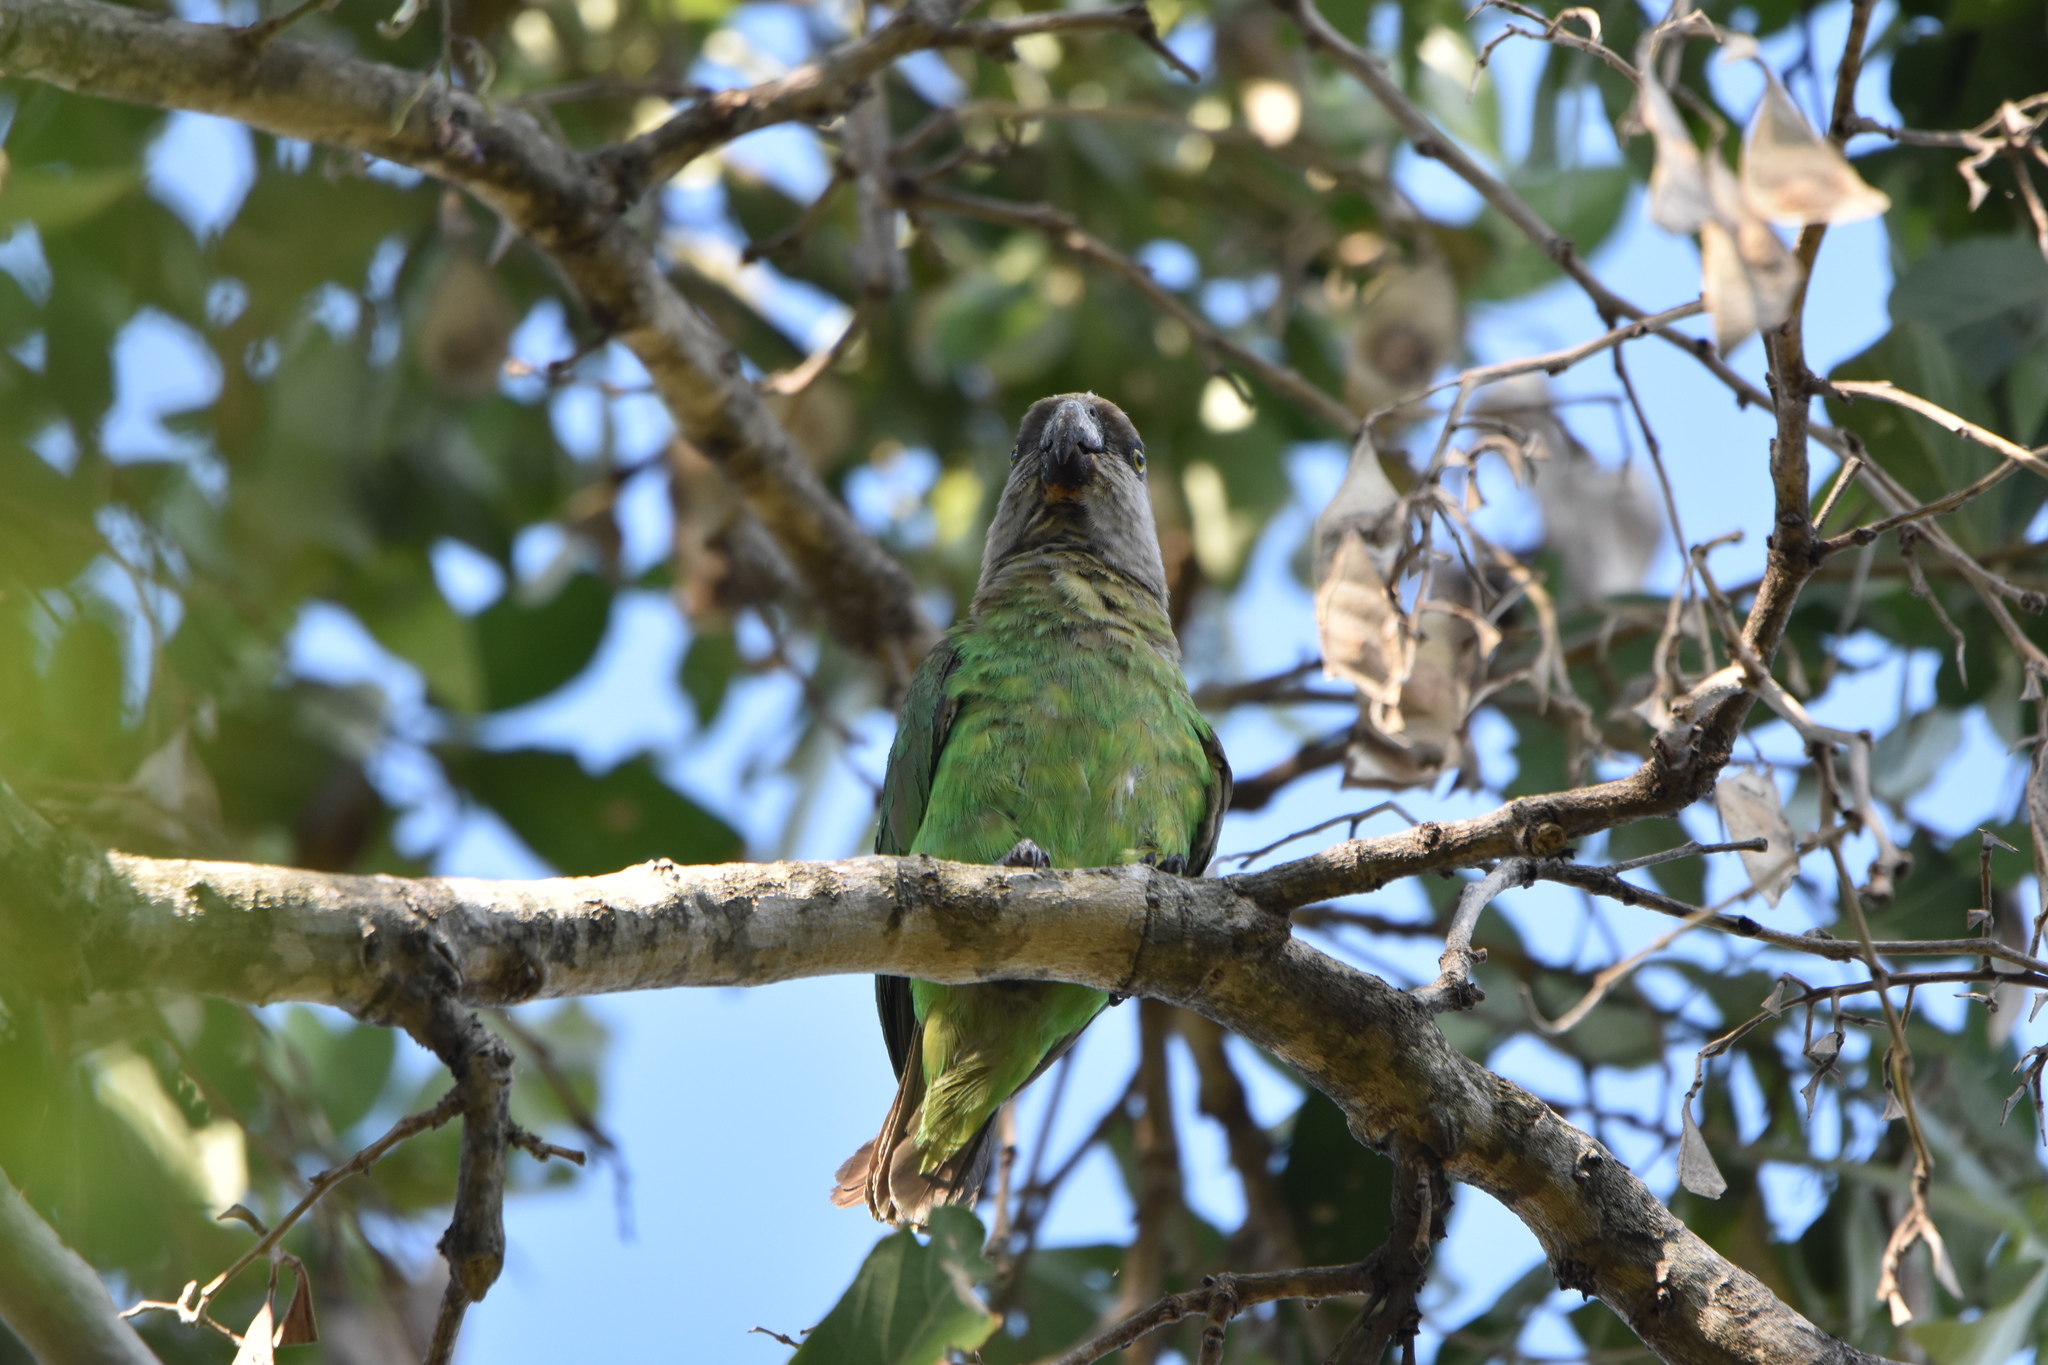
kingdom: Animalia
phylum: Chordata
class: Aves
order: Psittaciformes
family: Psittacidae
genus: Poicephalus
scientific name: Poicephalus cryptoxanthus
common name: Brown-headed parrot
